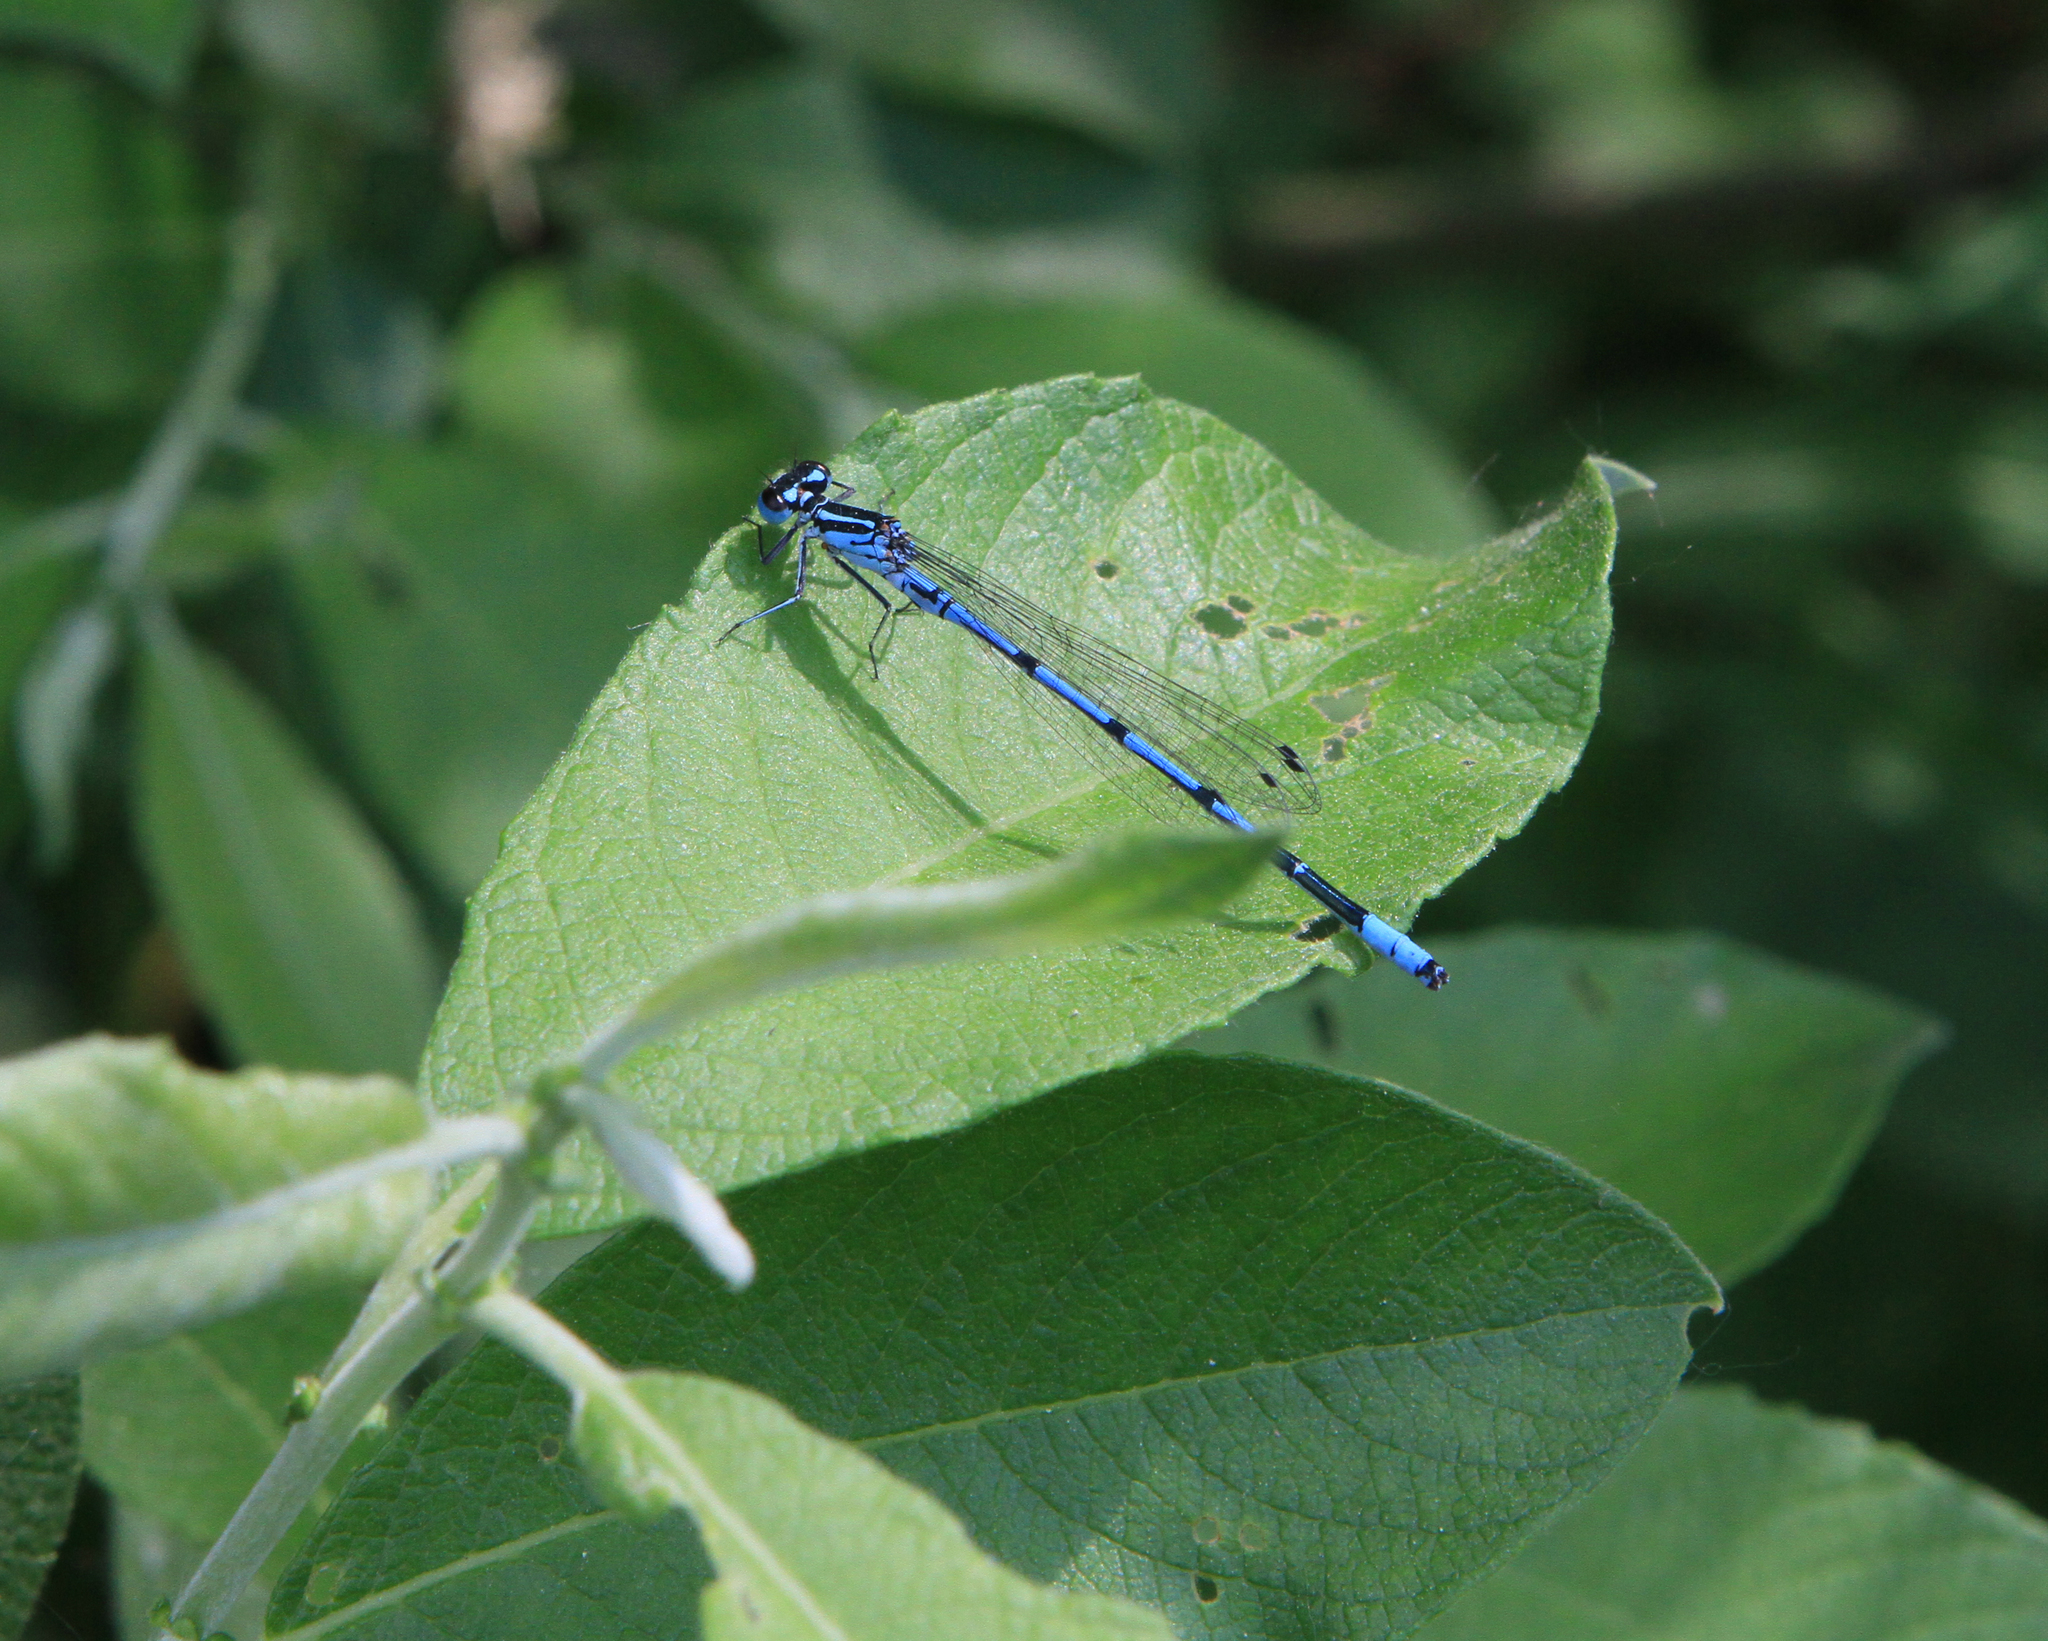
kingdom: Animalia
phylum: Arthropoda
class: Insecta
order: Odonata
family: Coenagrionidae
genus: Coenagrion
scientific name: Coenagrion puella
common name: Azure damselfly
